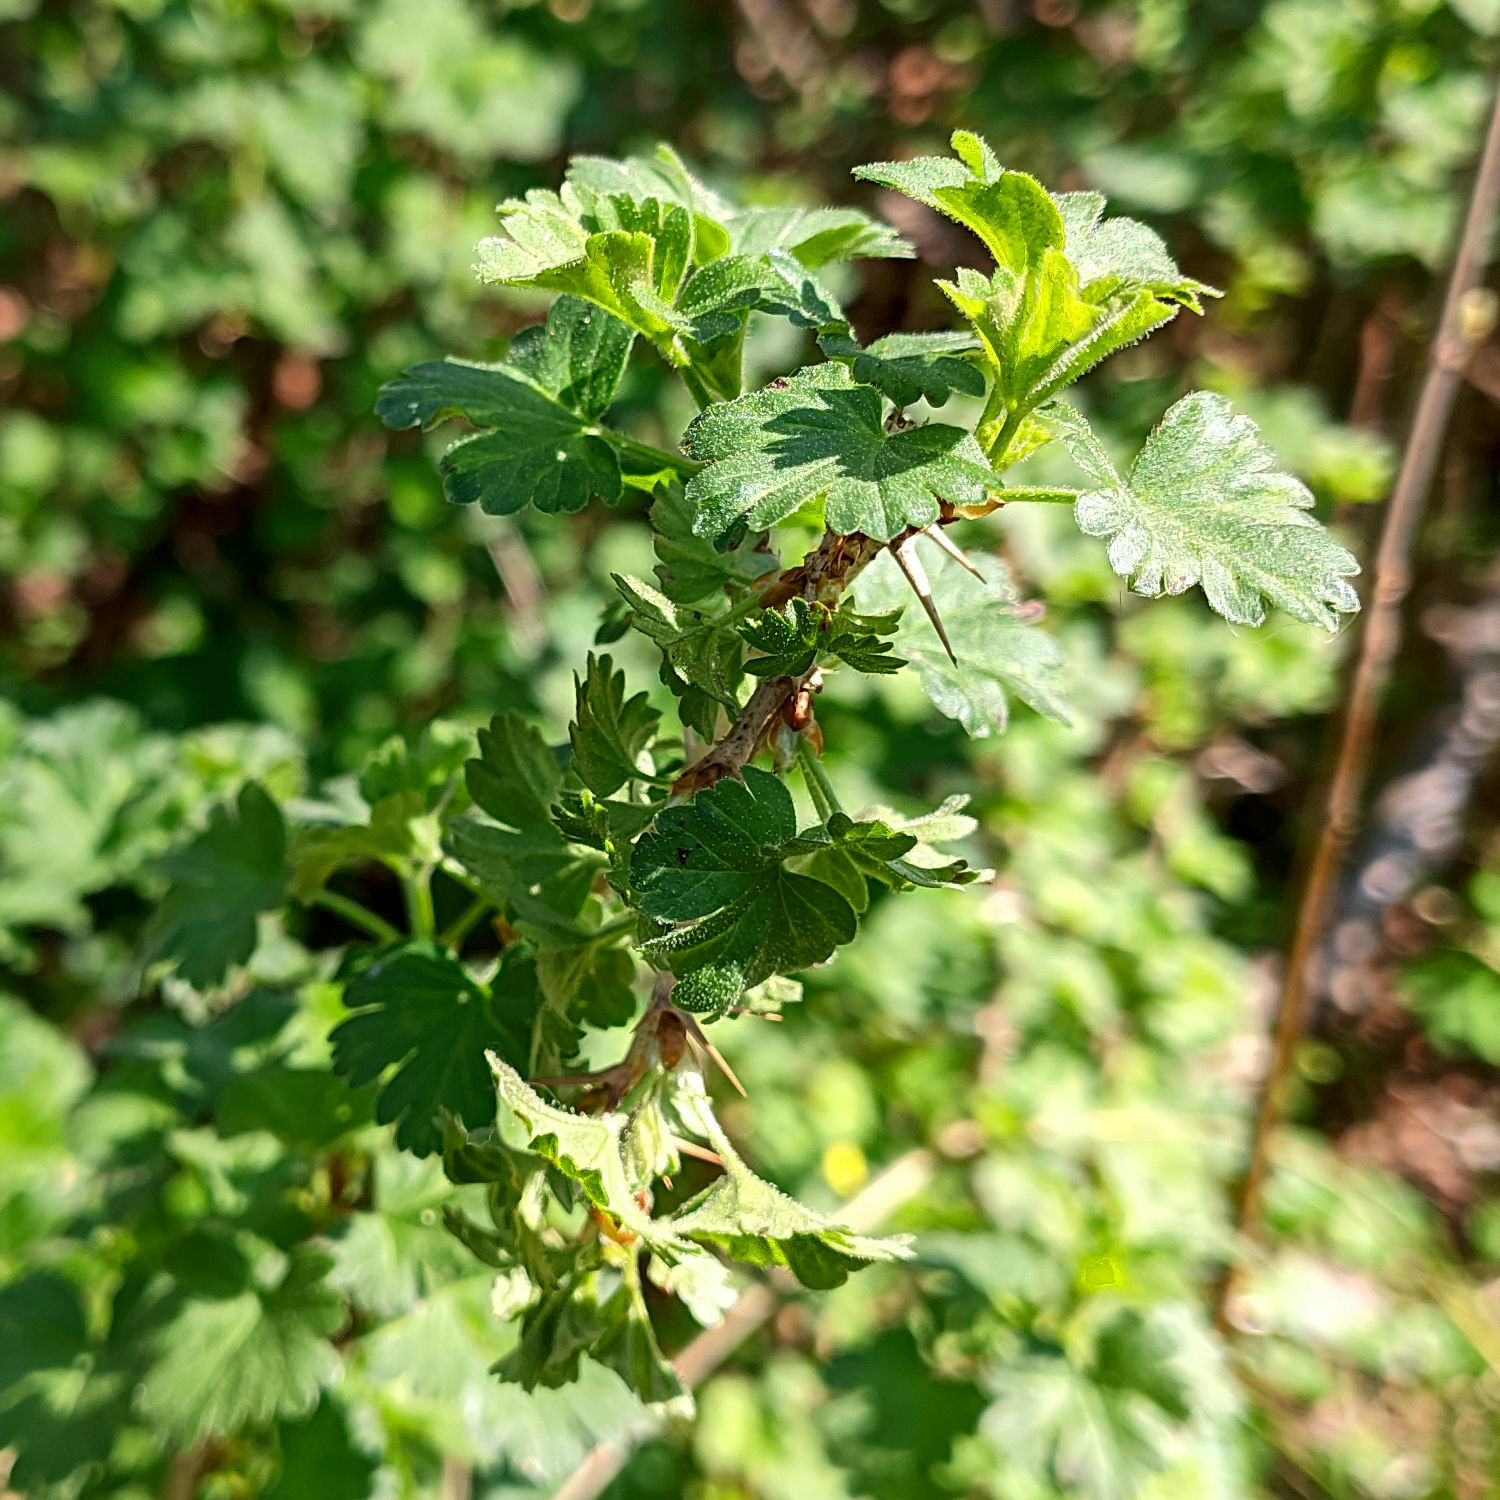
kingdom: Plantae
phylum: Tracheophyta
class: Magnoliopsida
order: Saxifragales
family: Grossulariaceae
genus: Ribes
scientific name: Ribes uva-crispa
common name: Gooseberry
